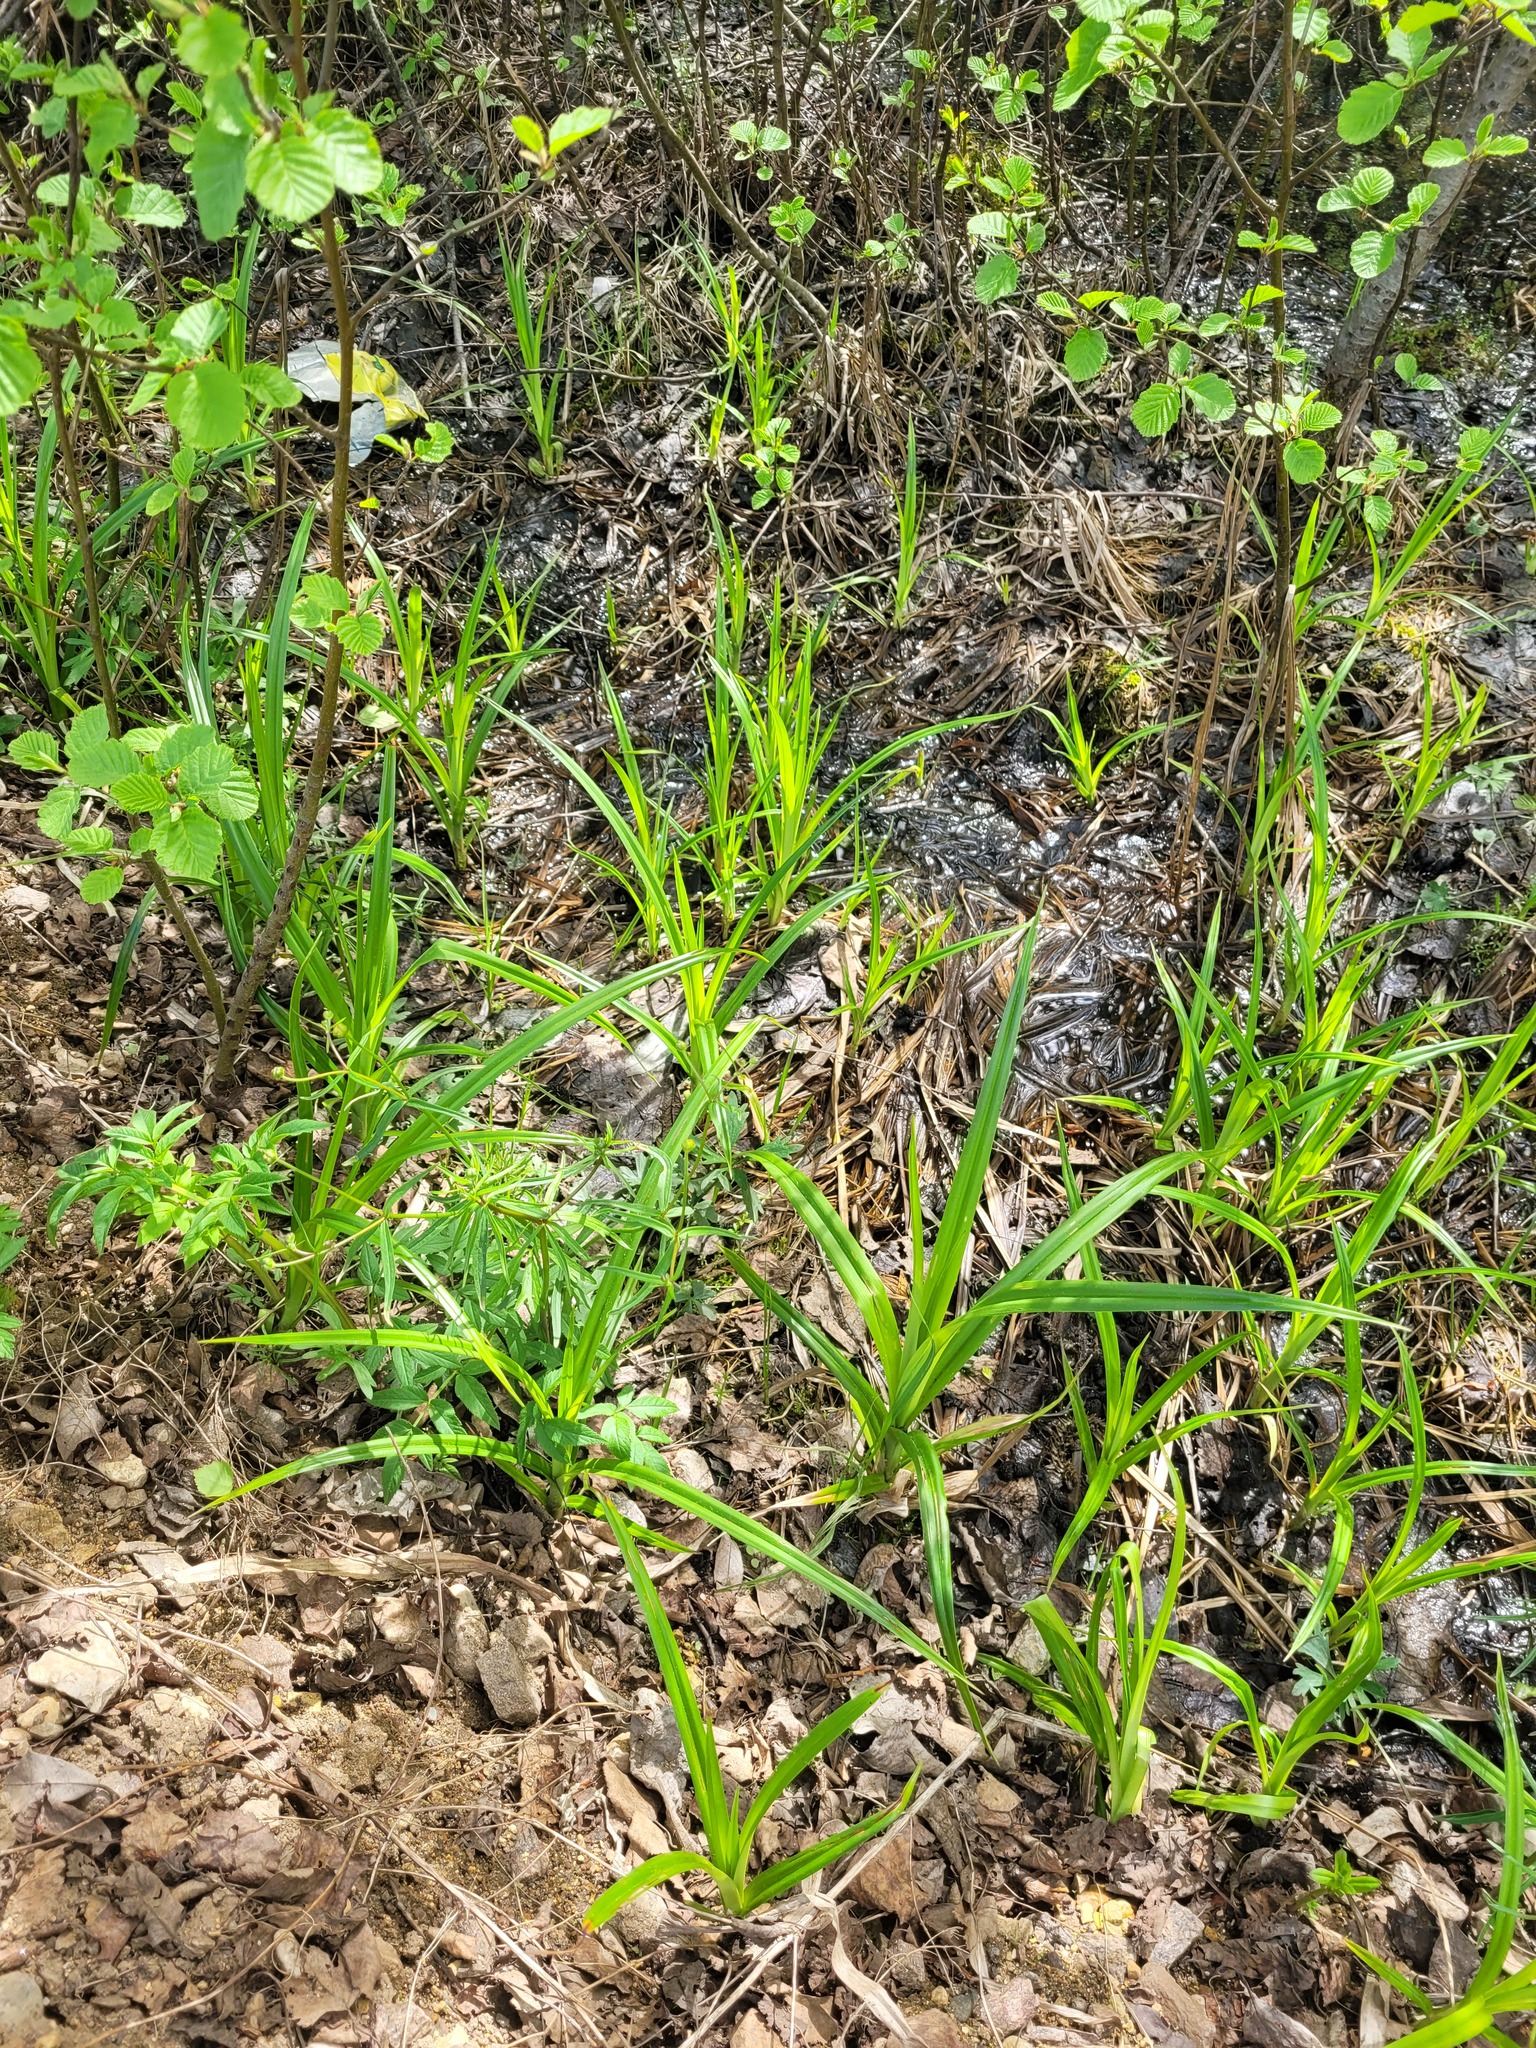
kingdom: Plantae
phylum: Tracheophyta
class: Liliopsida
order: Poales
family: Cyperaceae
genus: Scirpus
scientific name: Scirpus sylvaticus
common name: Wood club-rush
